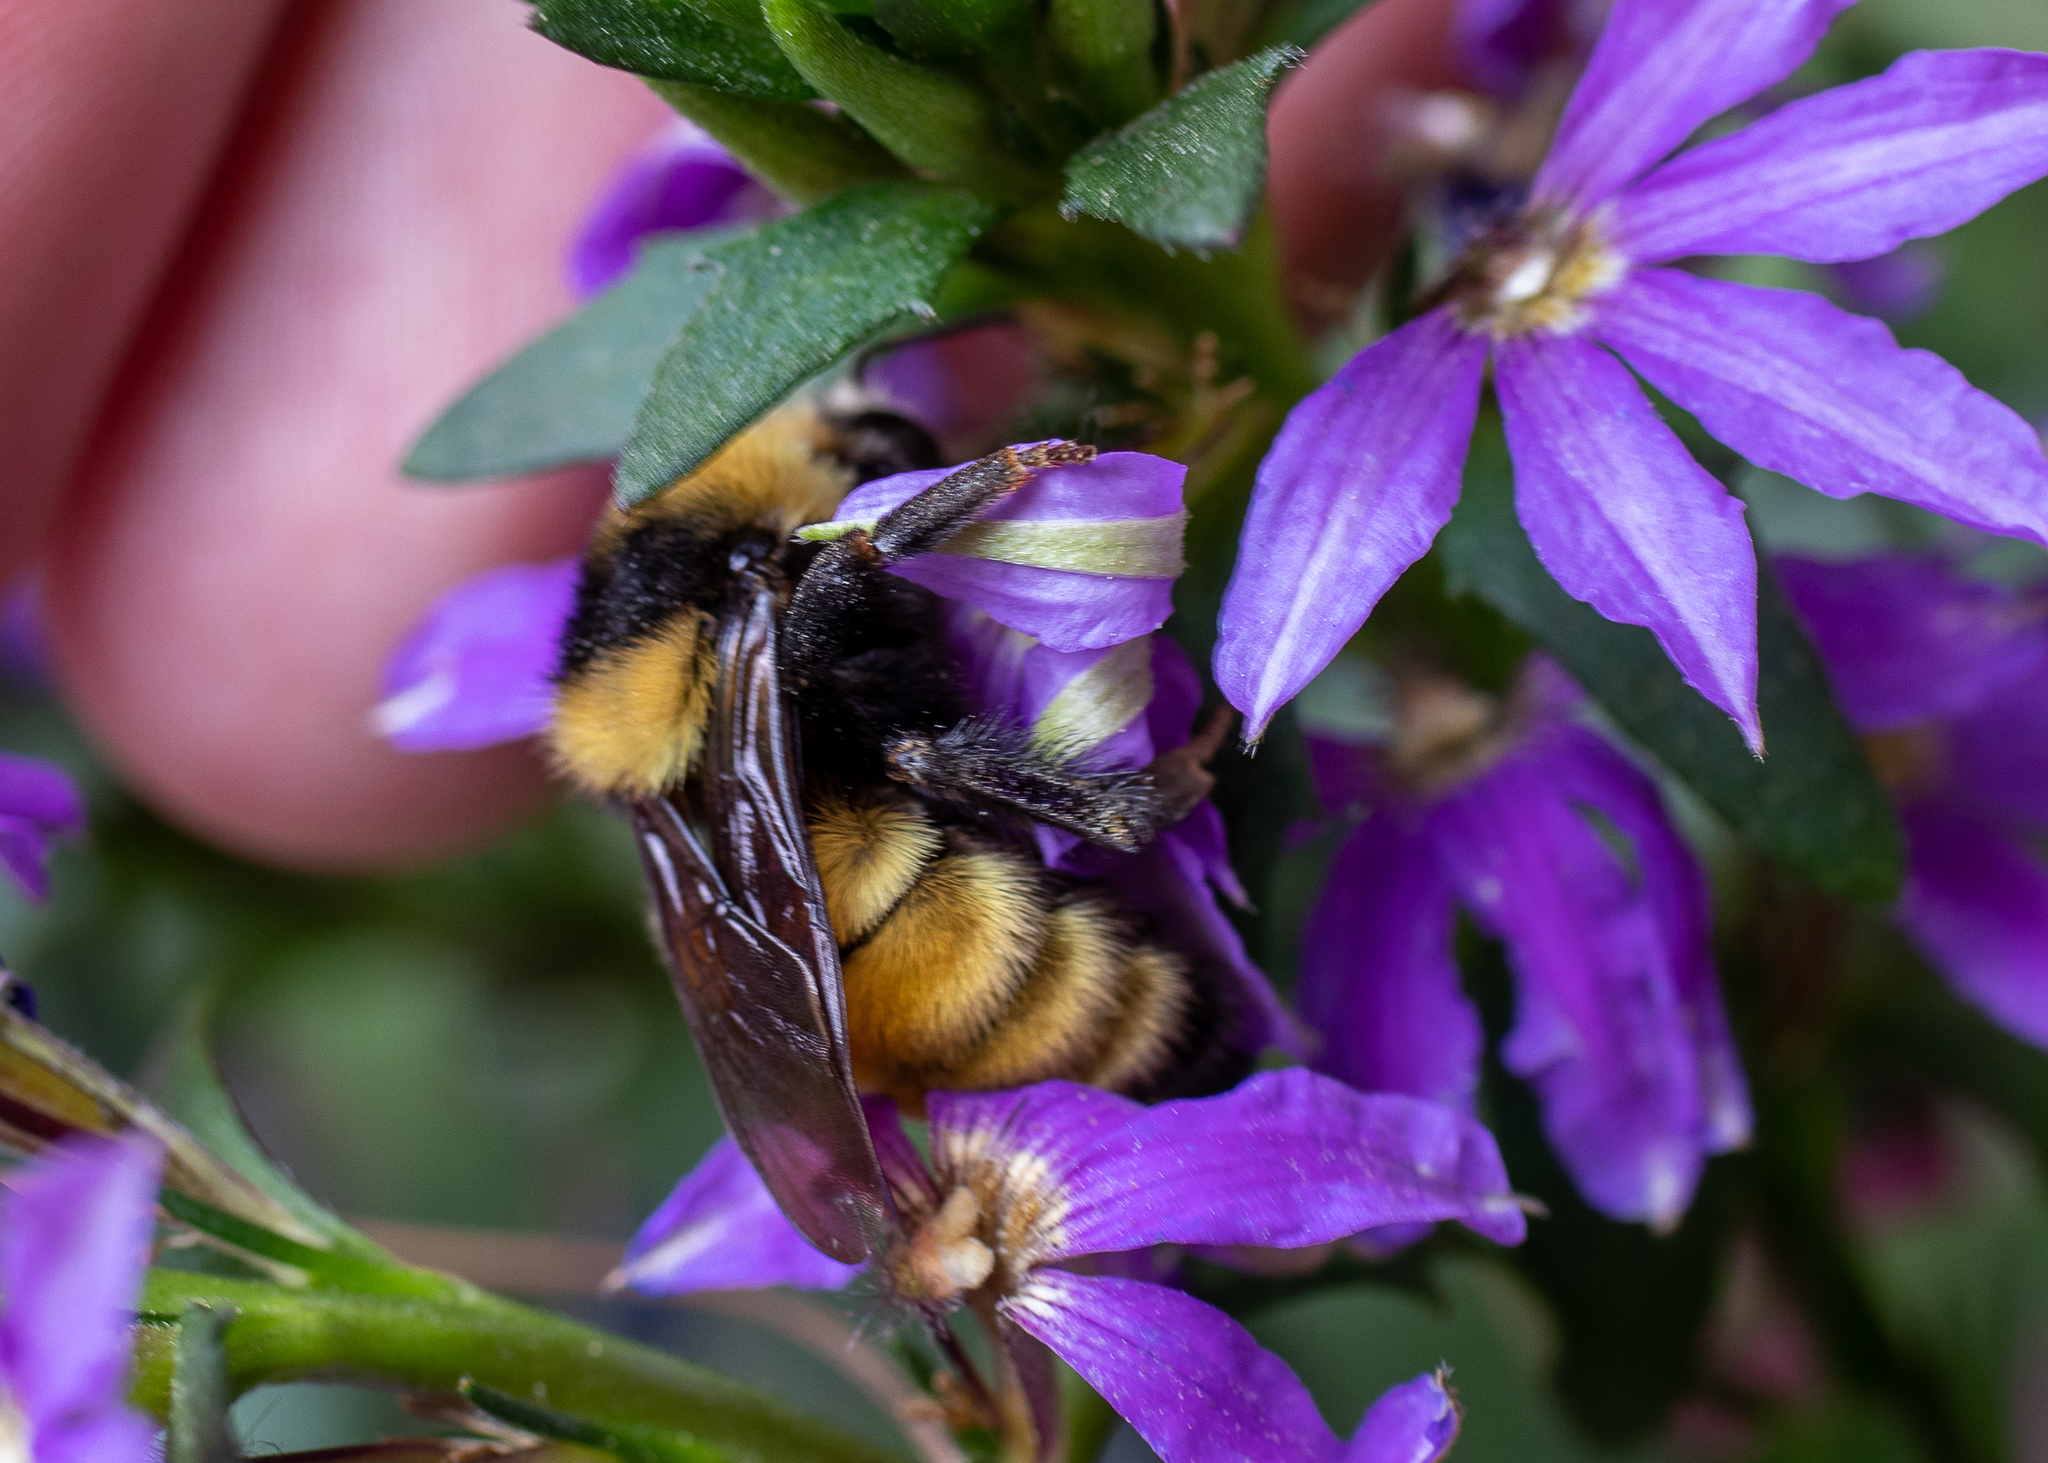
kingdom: Animalia
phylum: Arthropoda
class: Insecta
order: Hymenoptera
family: Apidae
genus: Bombus
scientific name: Bombus borealis
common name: Northern amber bumble bee
